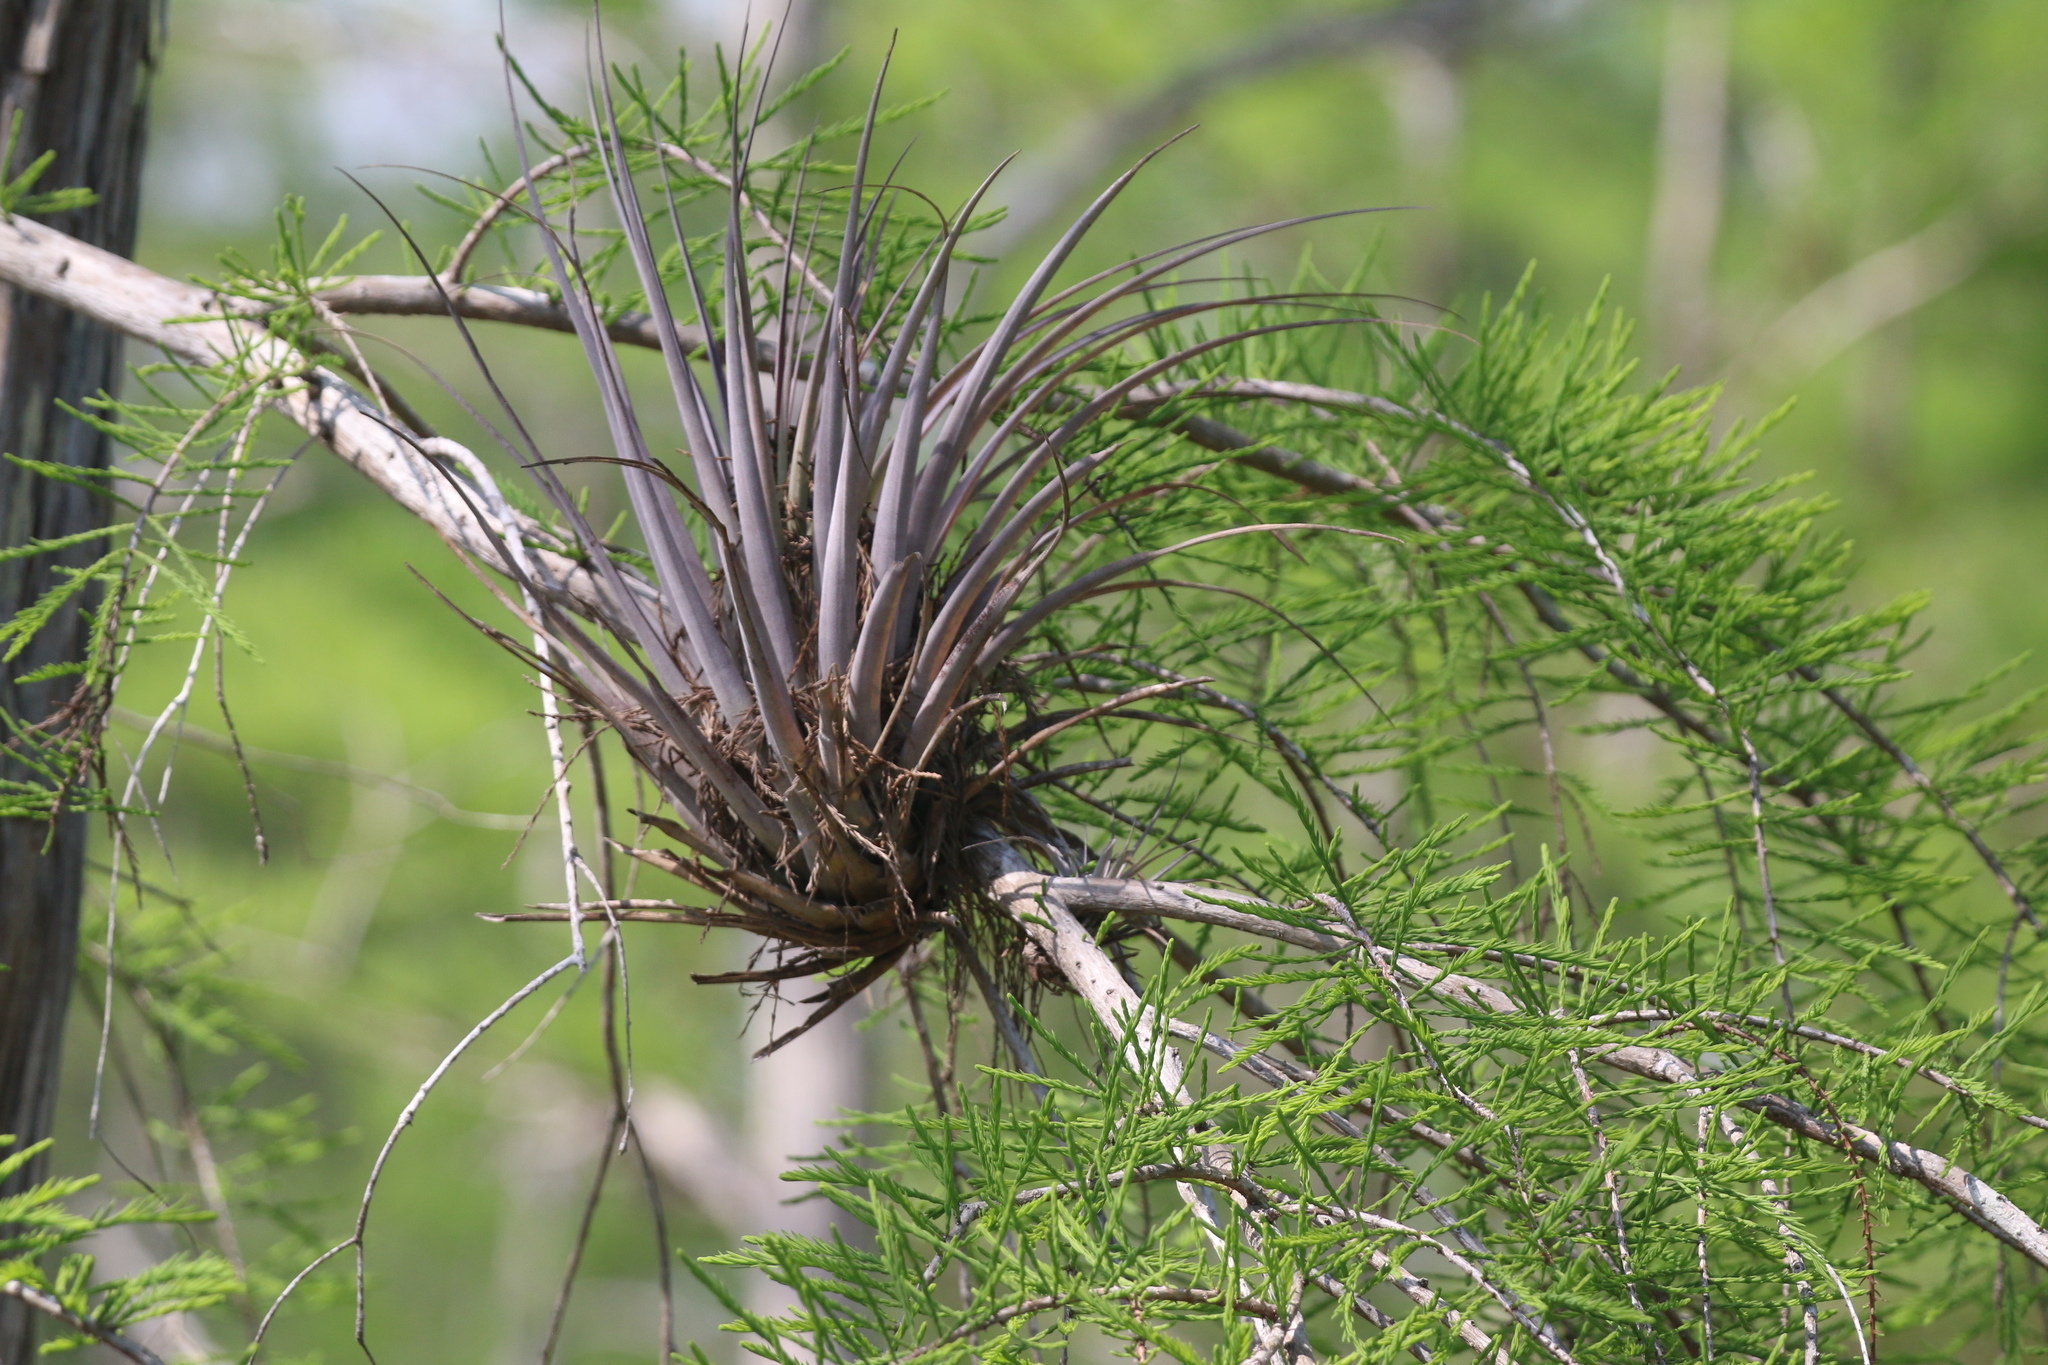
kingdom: Plantae
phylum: Tracheophyta
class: Liliopsida
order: Poales
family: Bromeliaceae
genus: Tillandsia
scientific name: Tillandsia fasciculata
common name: Giant airplant
